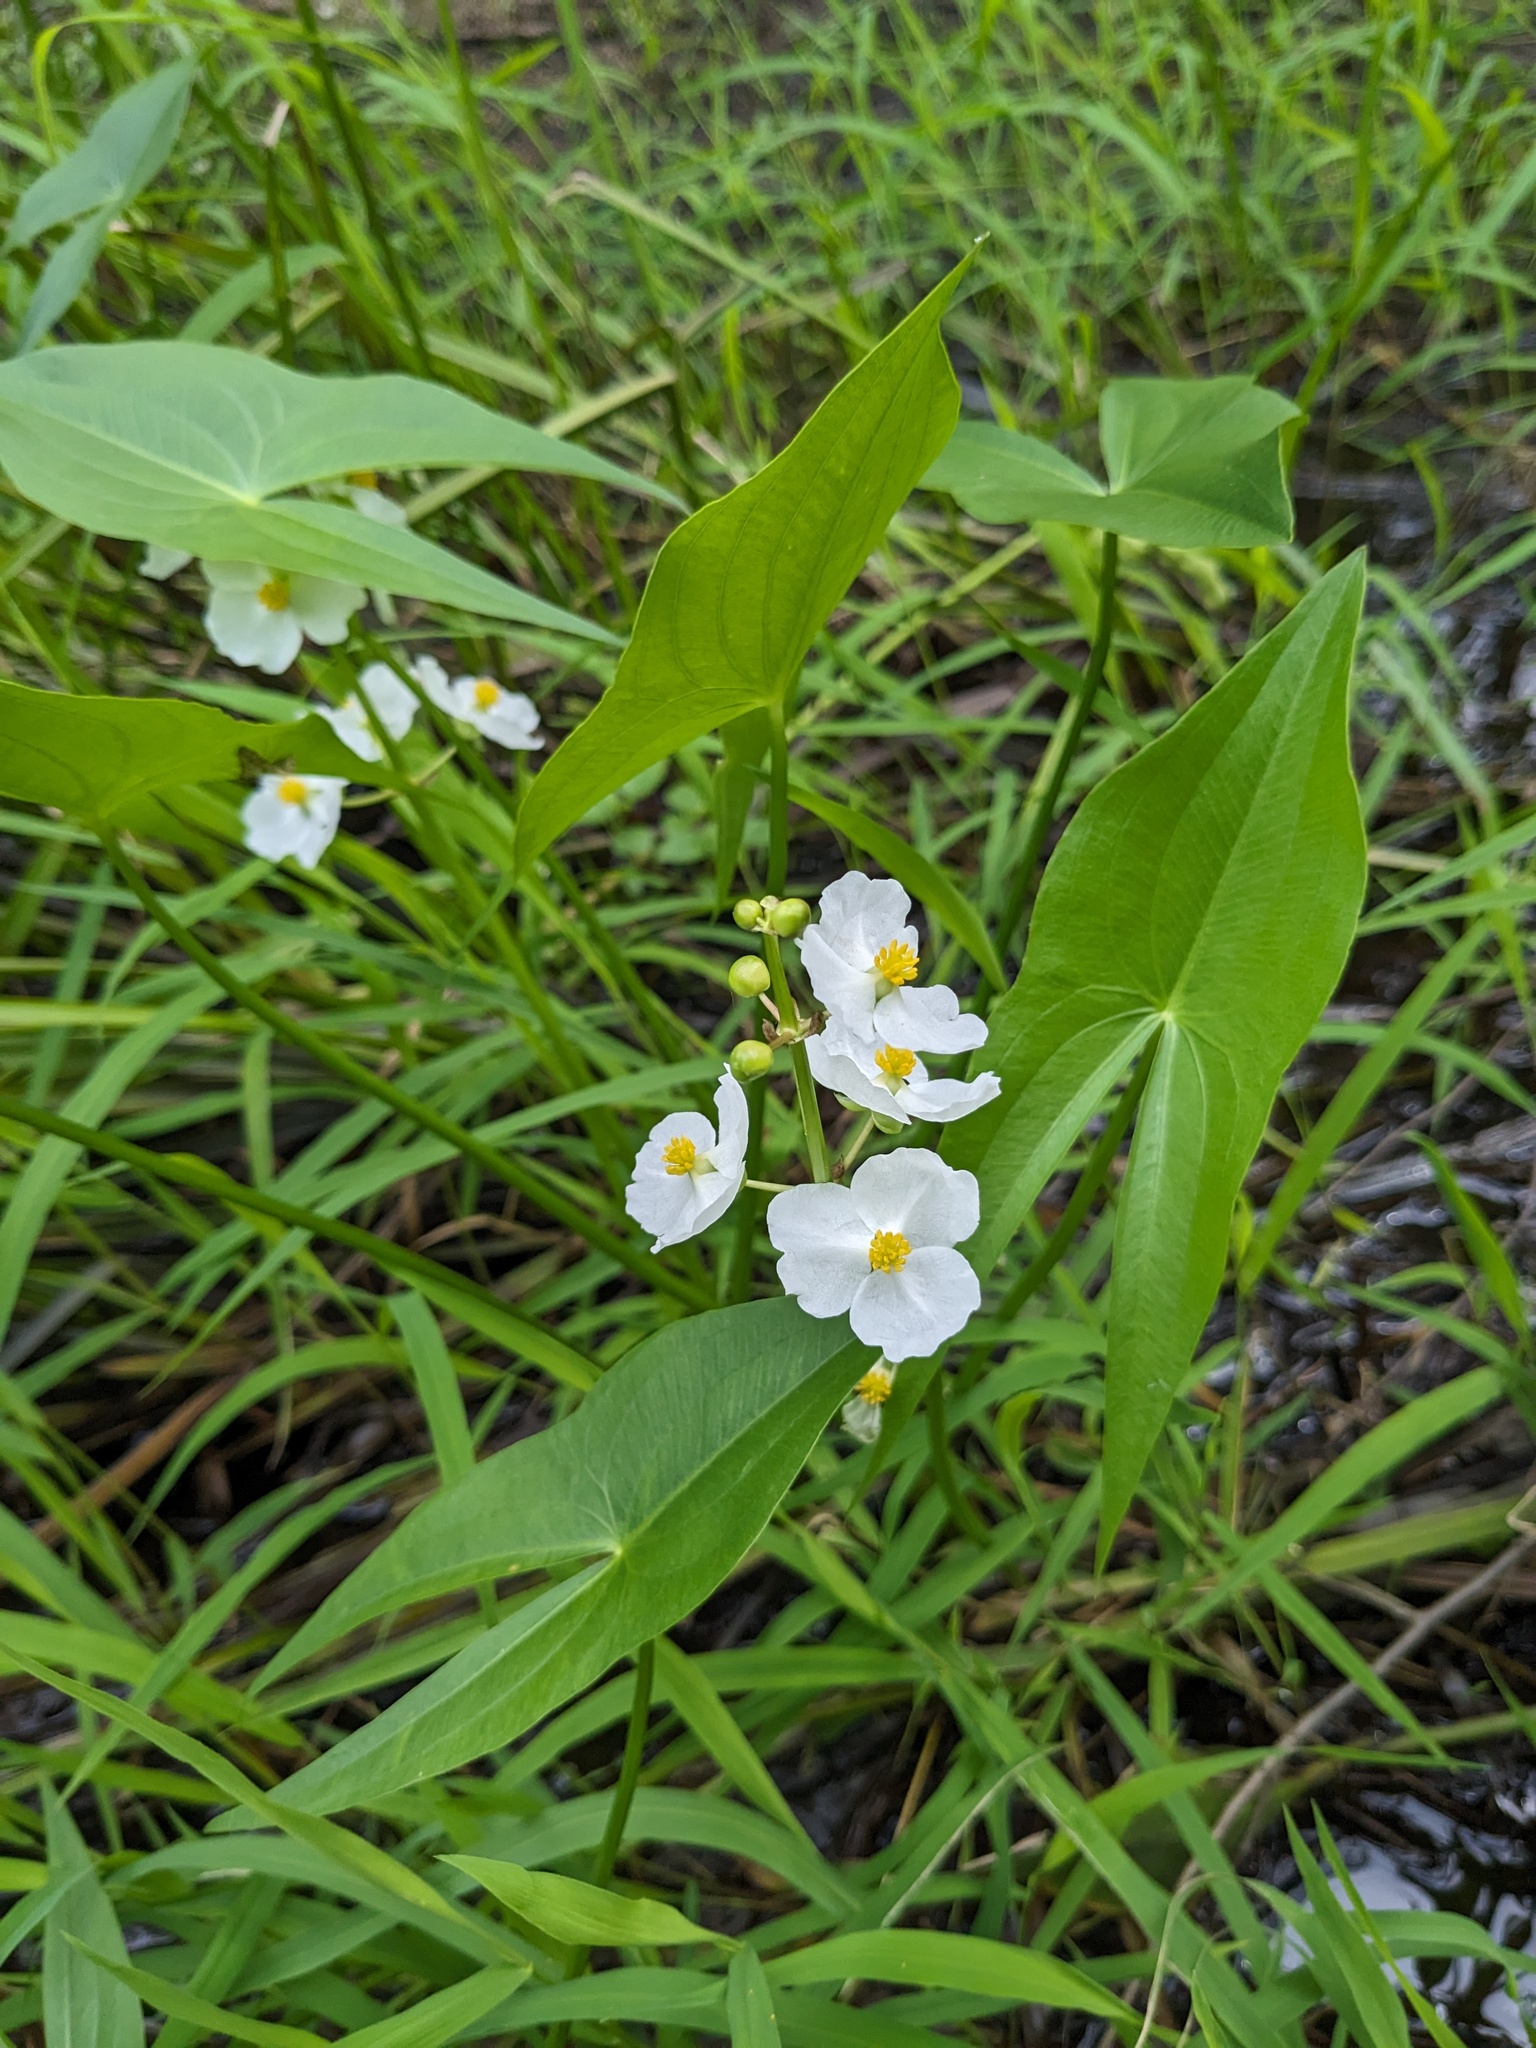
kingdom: Plantae
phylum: Tracheophyta
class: Liliopsida
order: Alismatales
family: Alismataceae
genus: Sagittaria
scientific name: Sagittaria latifolia
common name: Duck-potato
